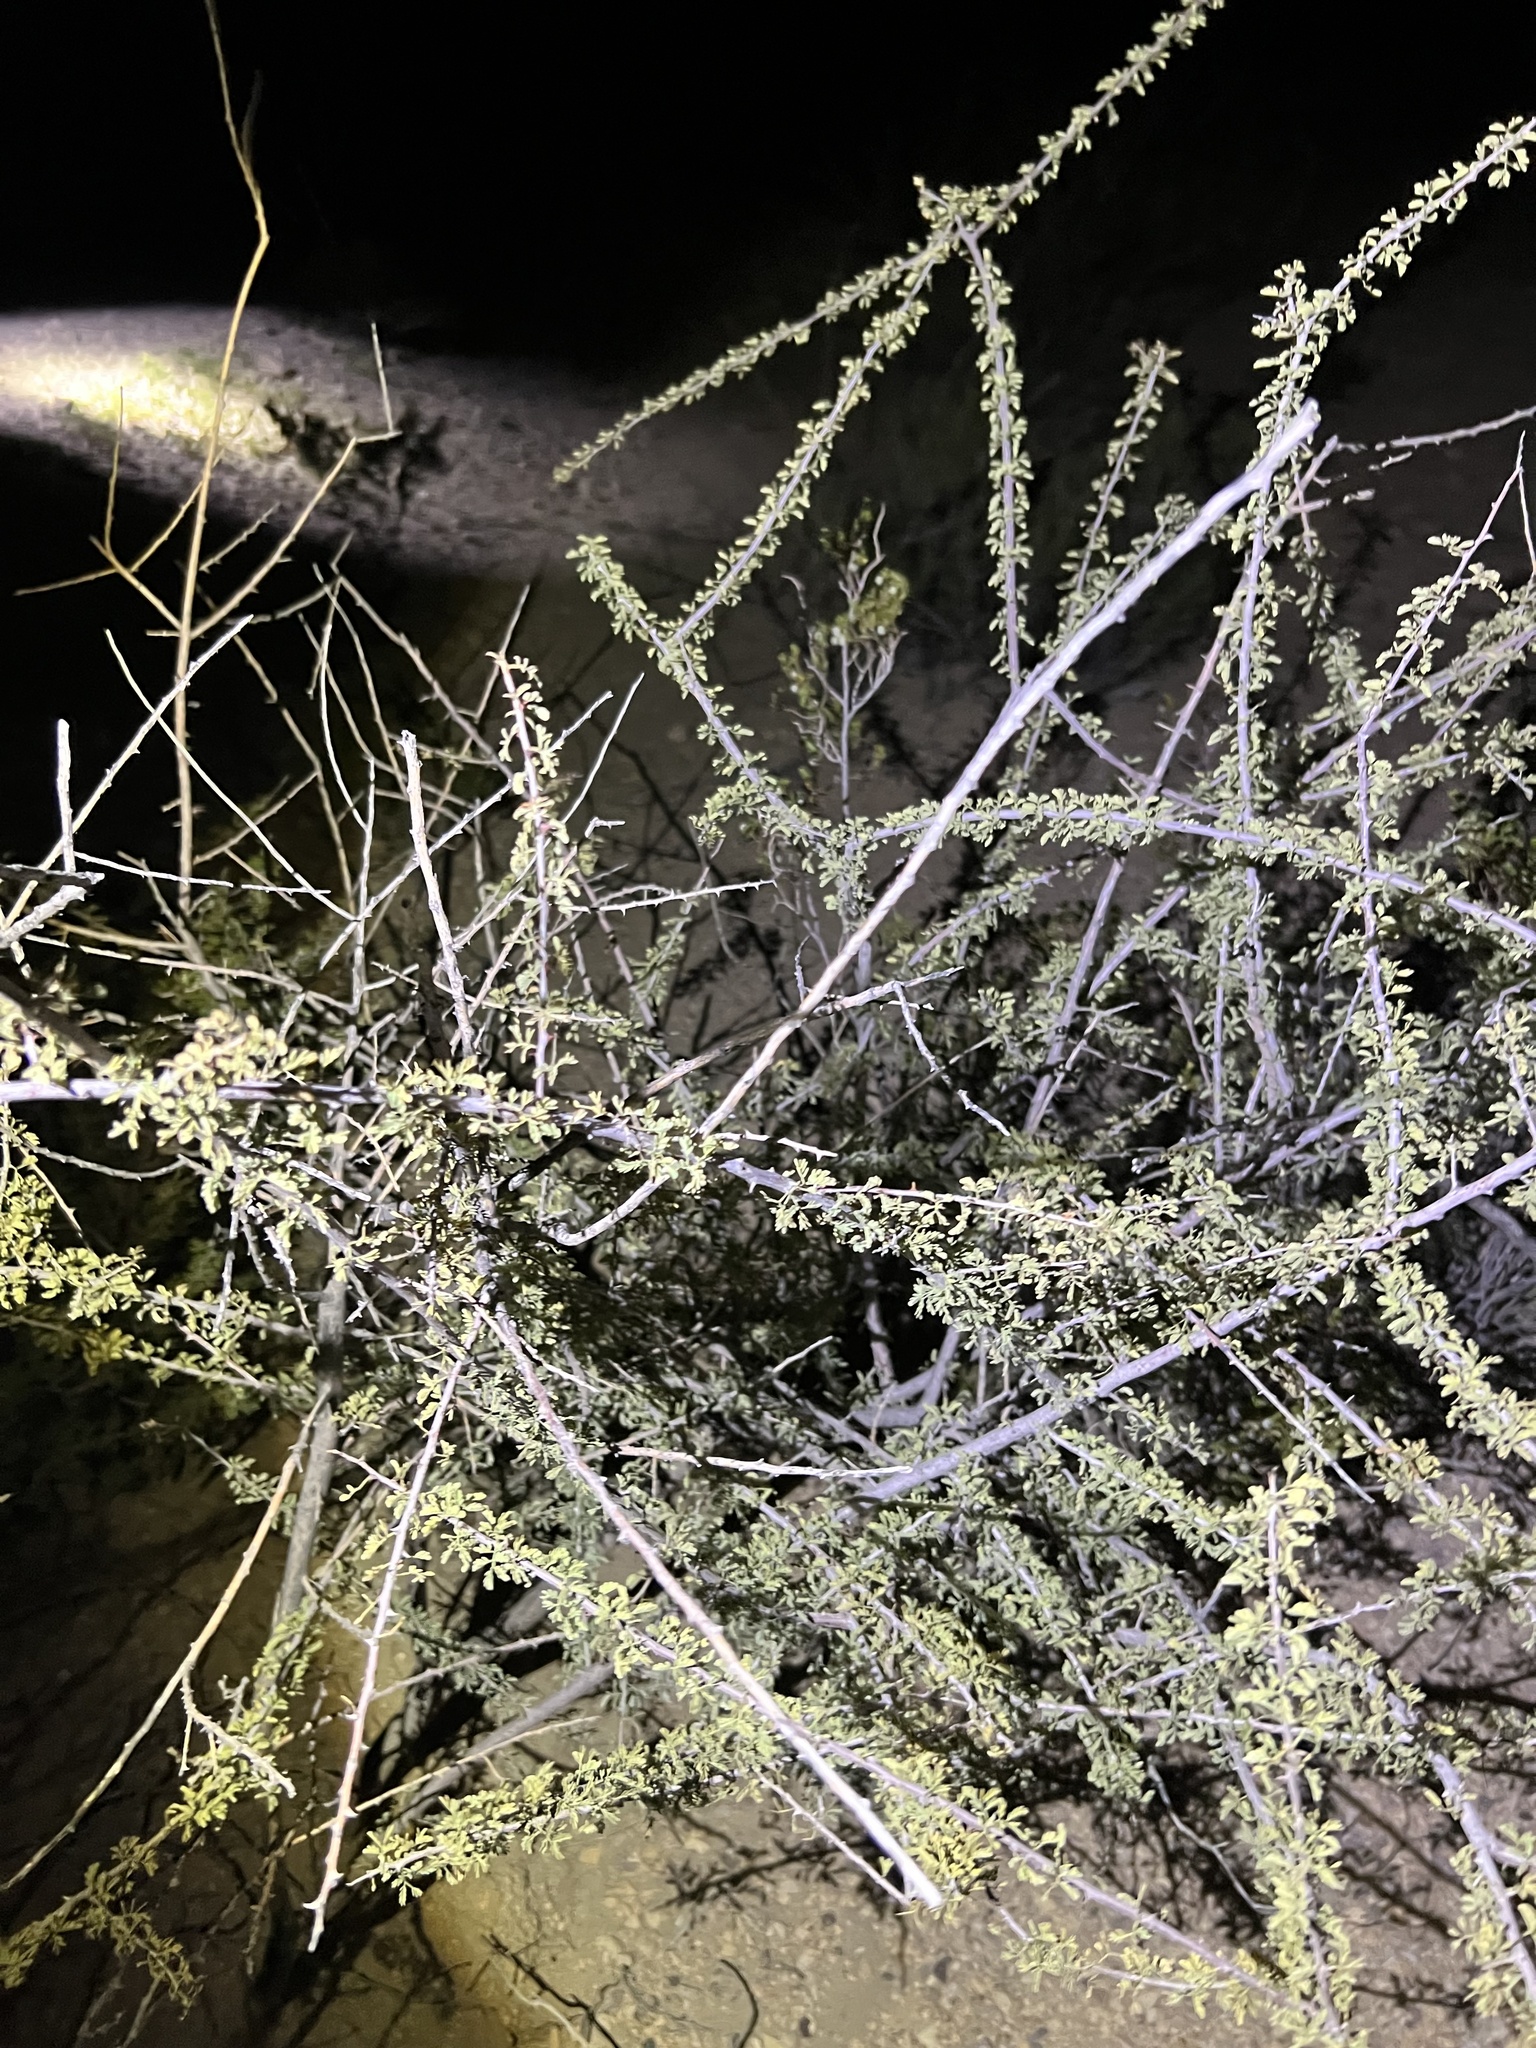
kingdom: Plantae
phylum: Tracheophyta
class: Magnoliopsida
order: Fabales
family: Fabaceae
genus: Senegalia
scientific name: Senegalia greggii
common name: Texas-mimosa
